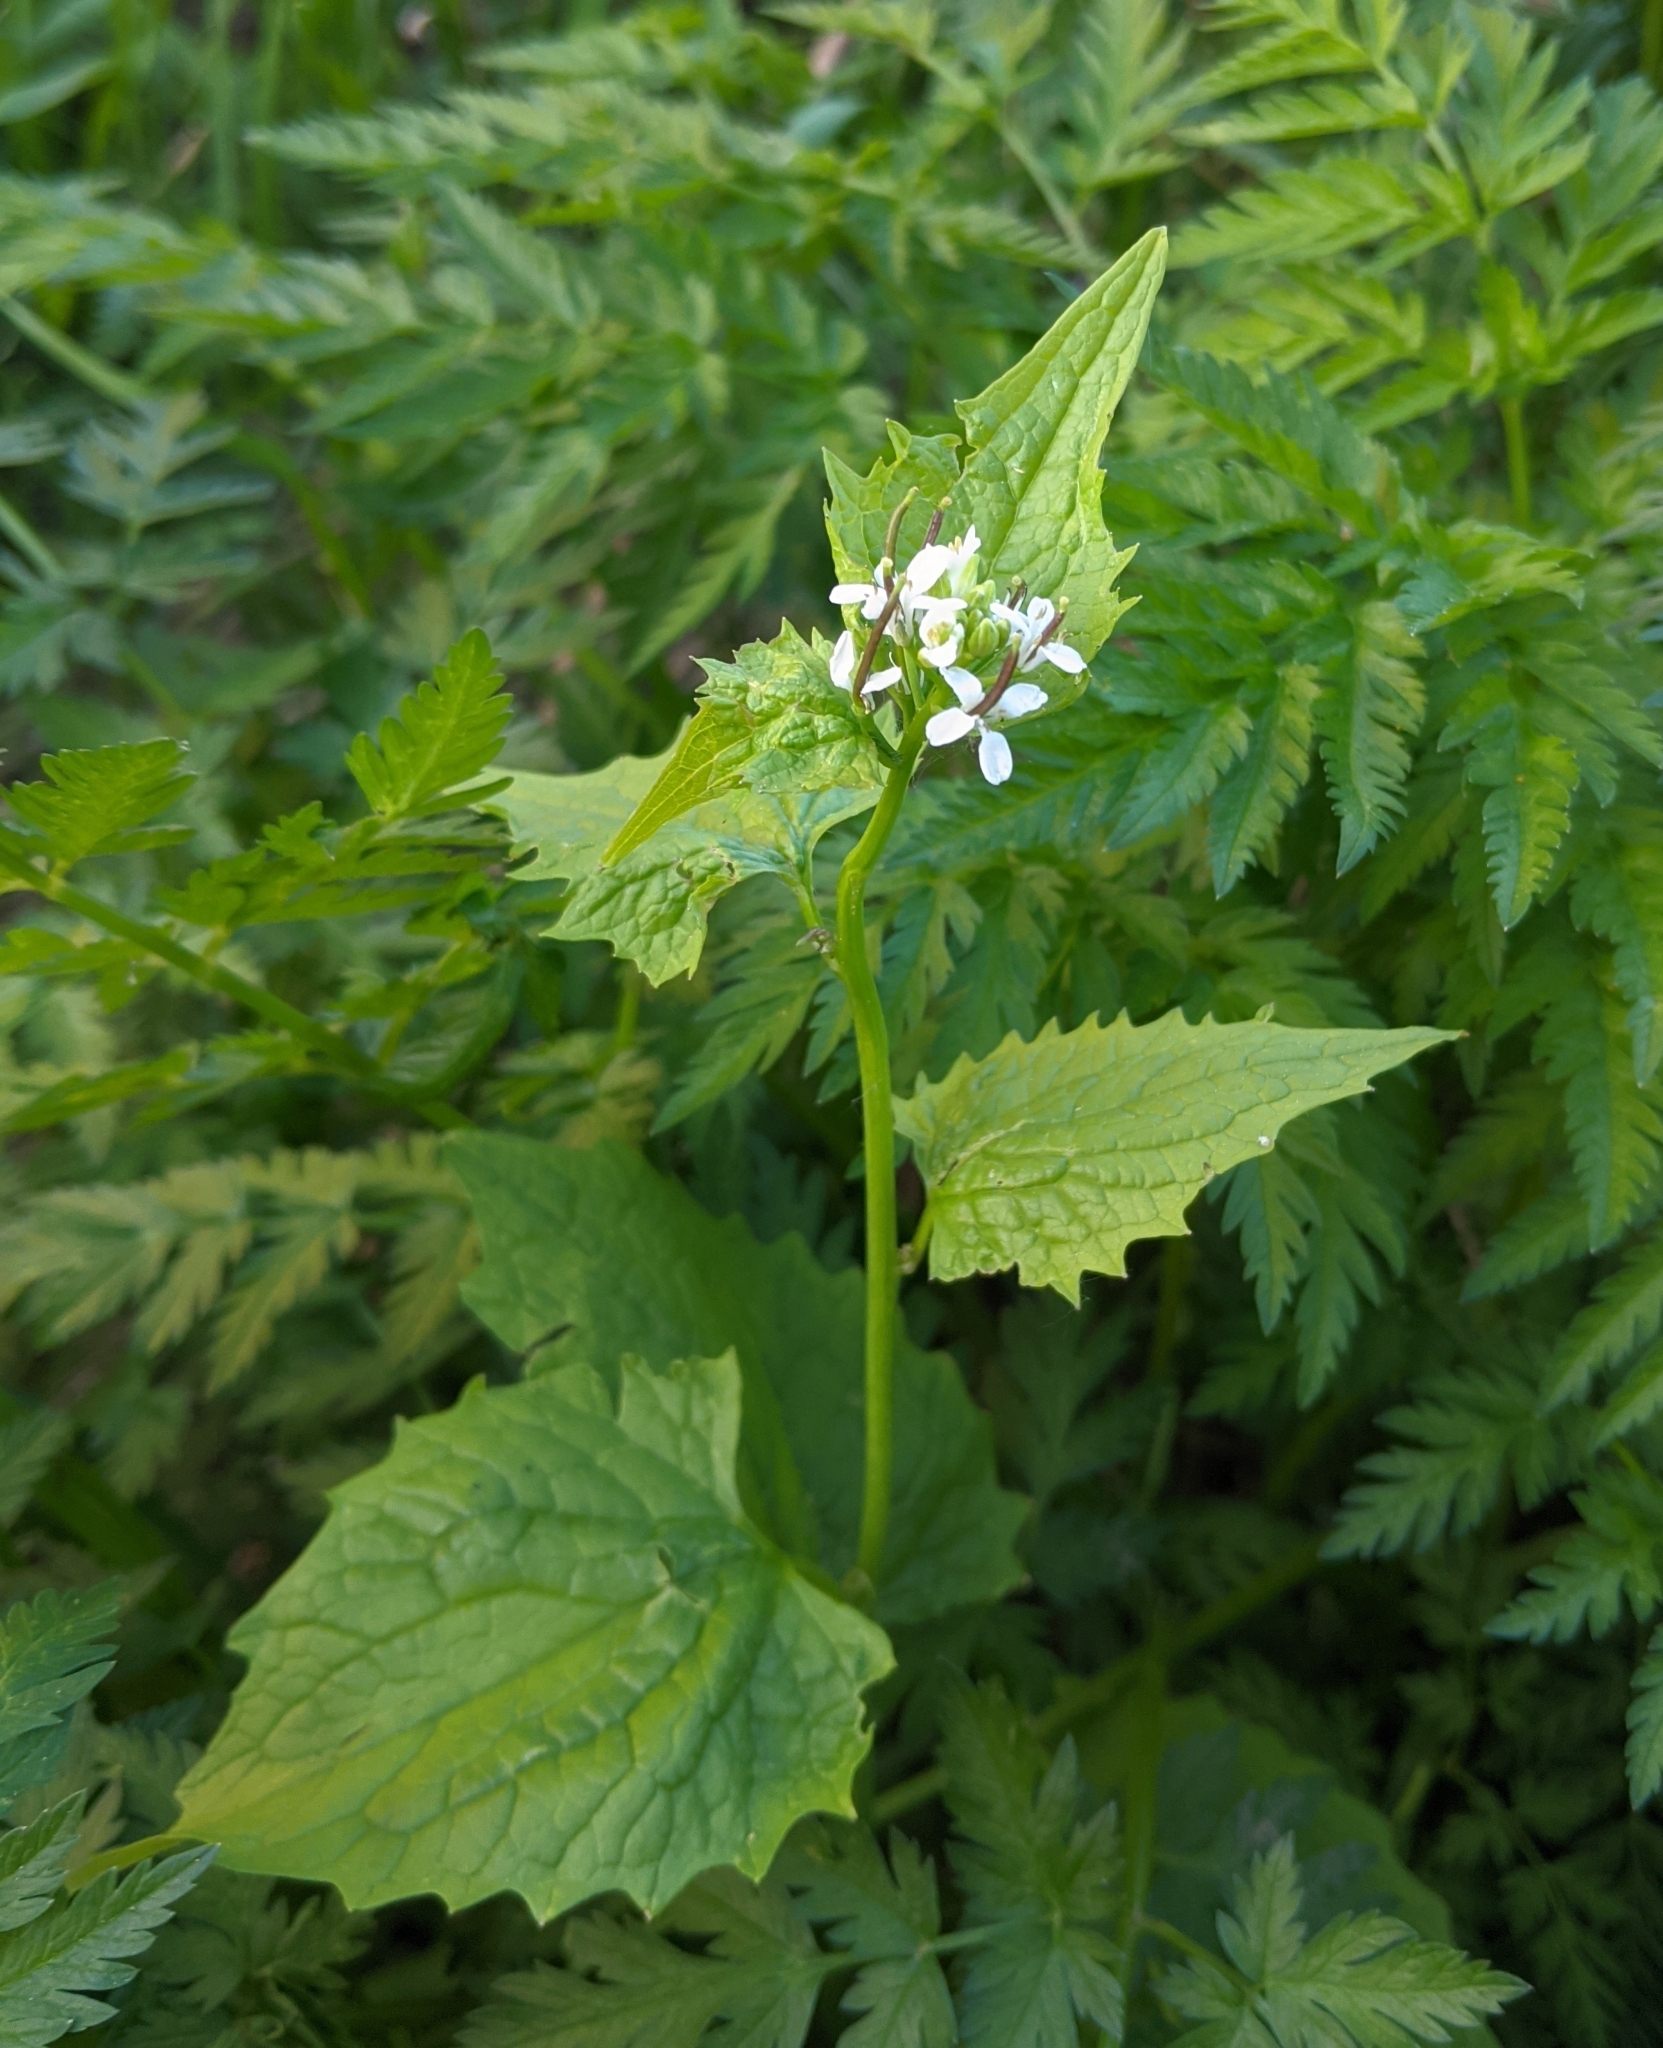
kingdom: Plantae
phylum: Tracheophyta
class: Magnoliopsida
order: Brassicales
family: Brassicaceae
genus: Alliaria
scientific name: Alliaria petiolata
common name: Garlic mustard
